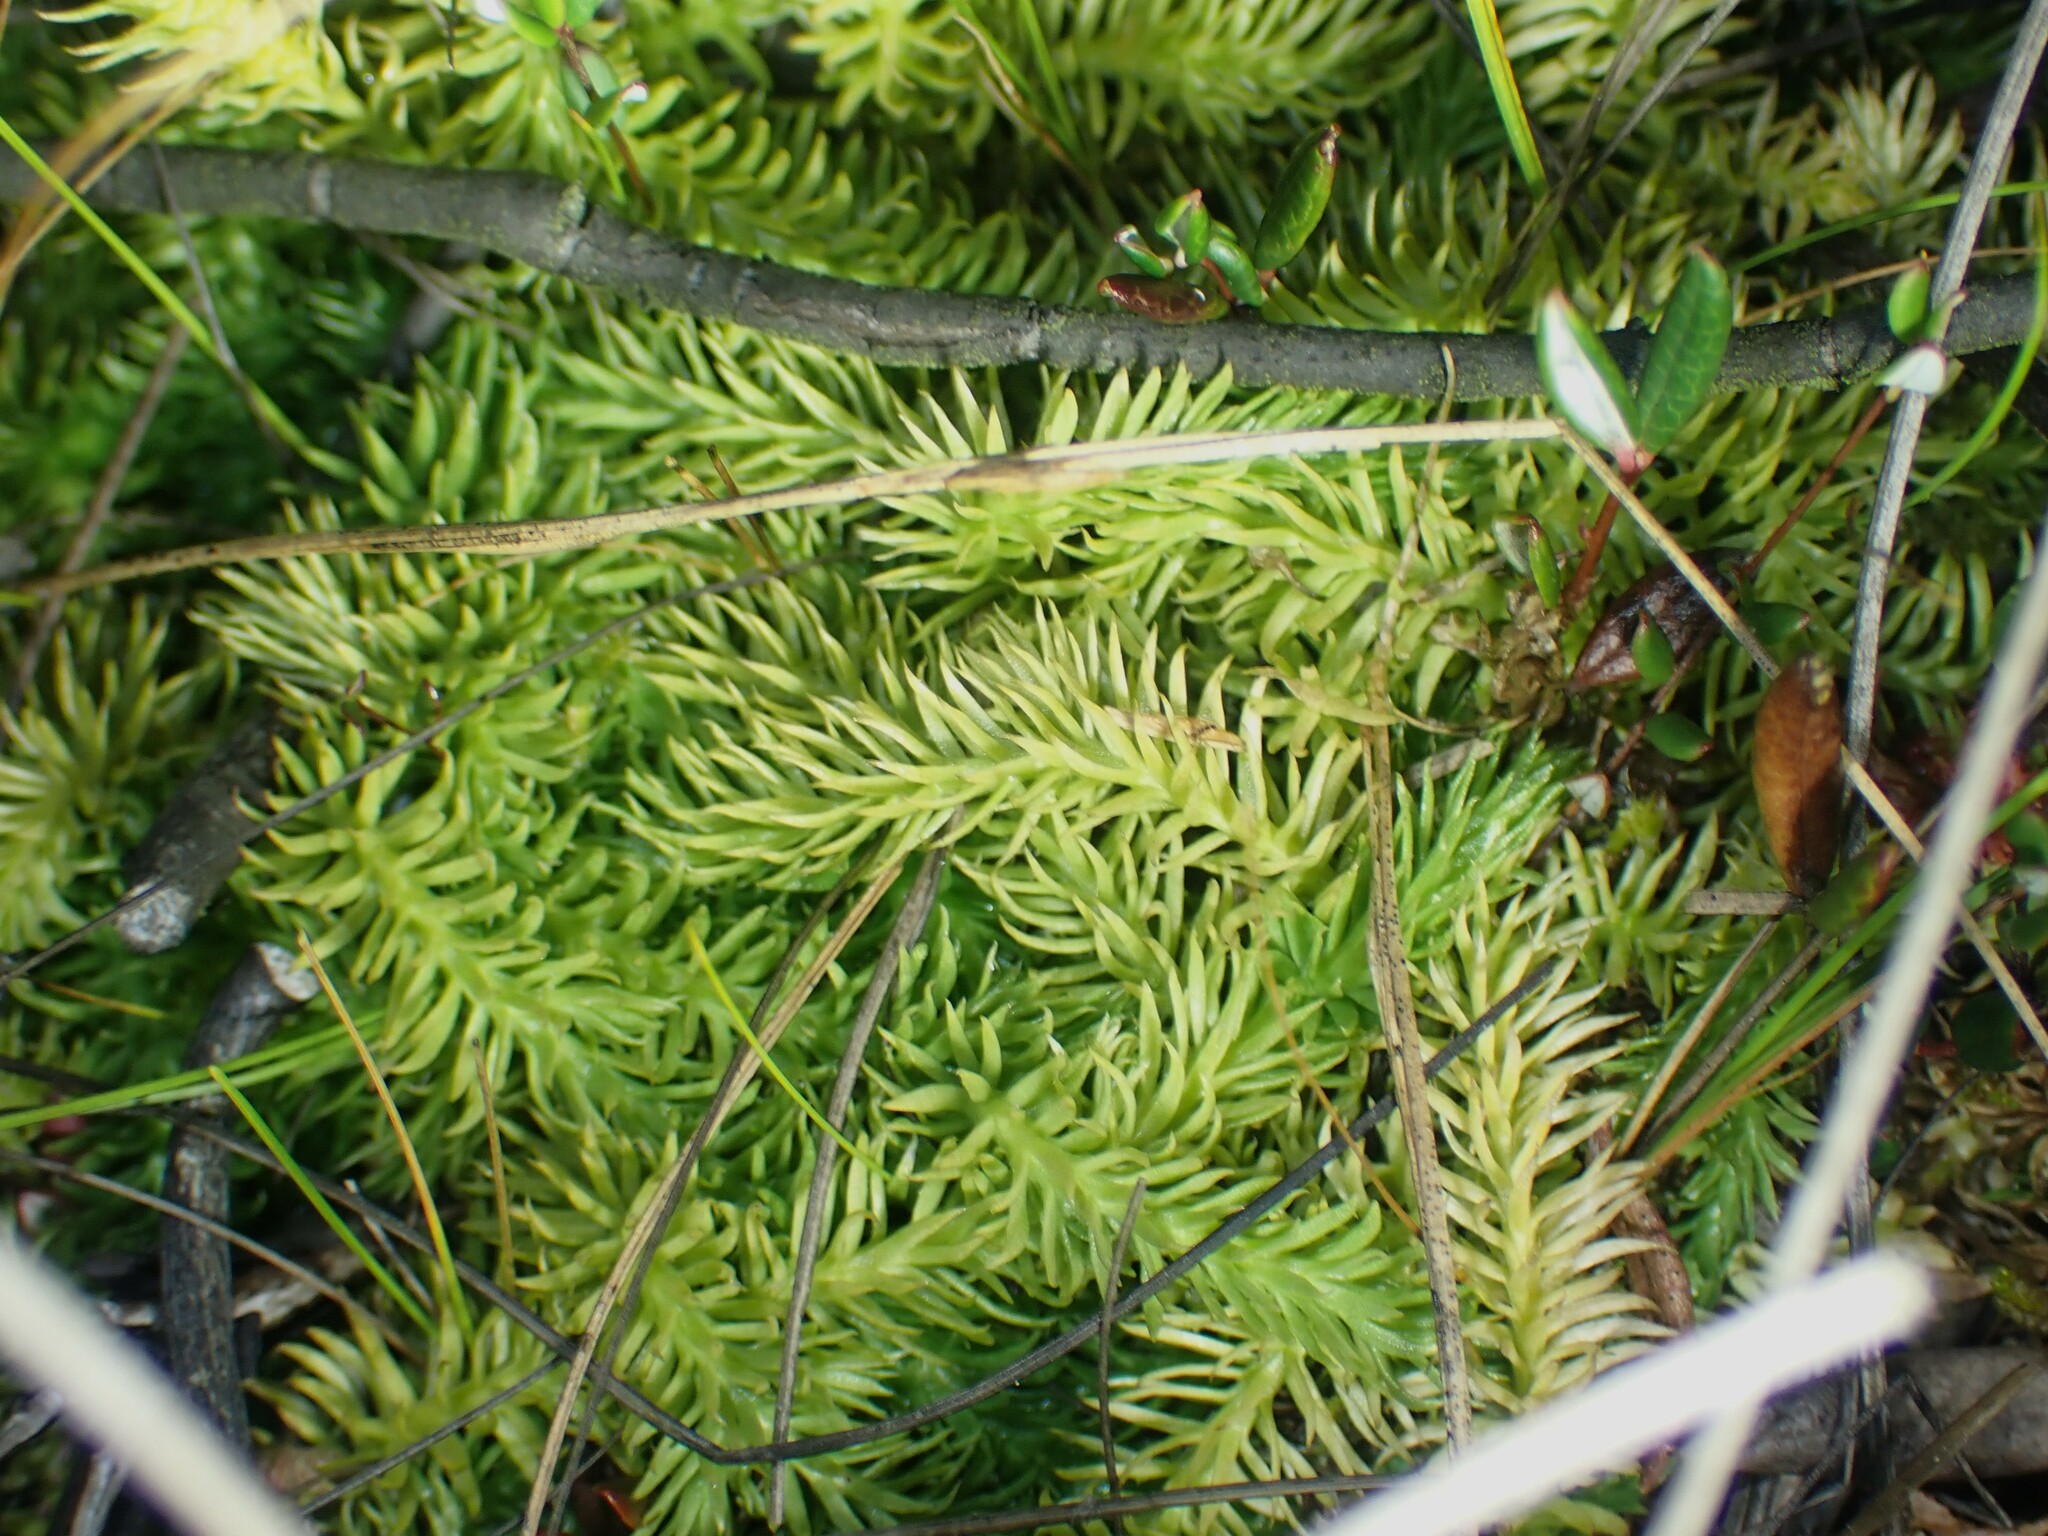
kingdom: Plantae
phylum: Tracheophyta
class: Lycopodiopsida
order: Lycopodiales
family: Lycopodiaceae
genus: Lycopodiella
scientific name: Lycopodiella inundata
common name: Marsh clubmoss
